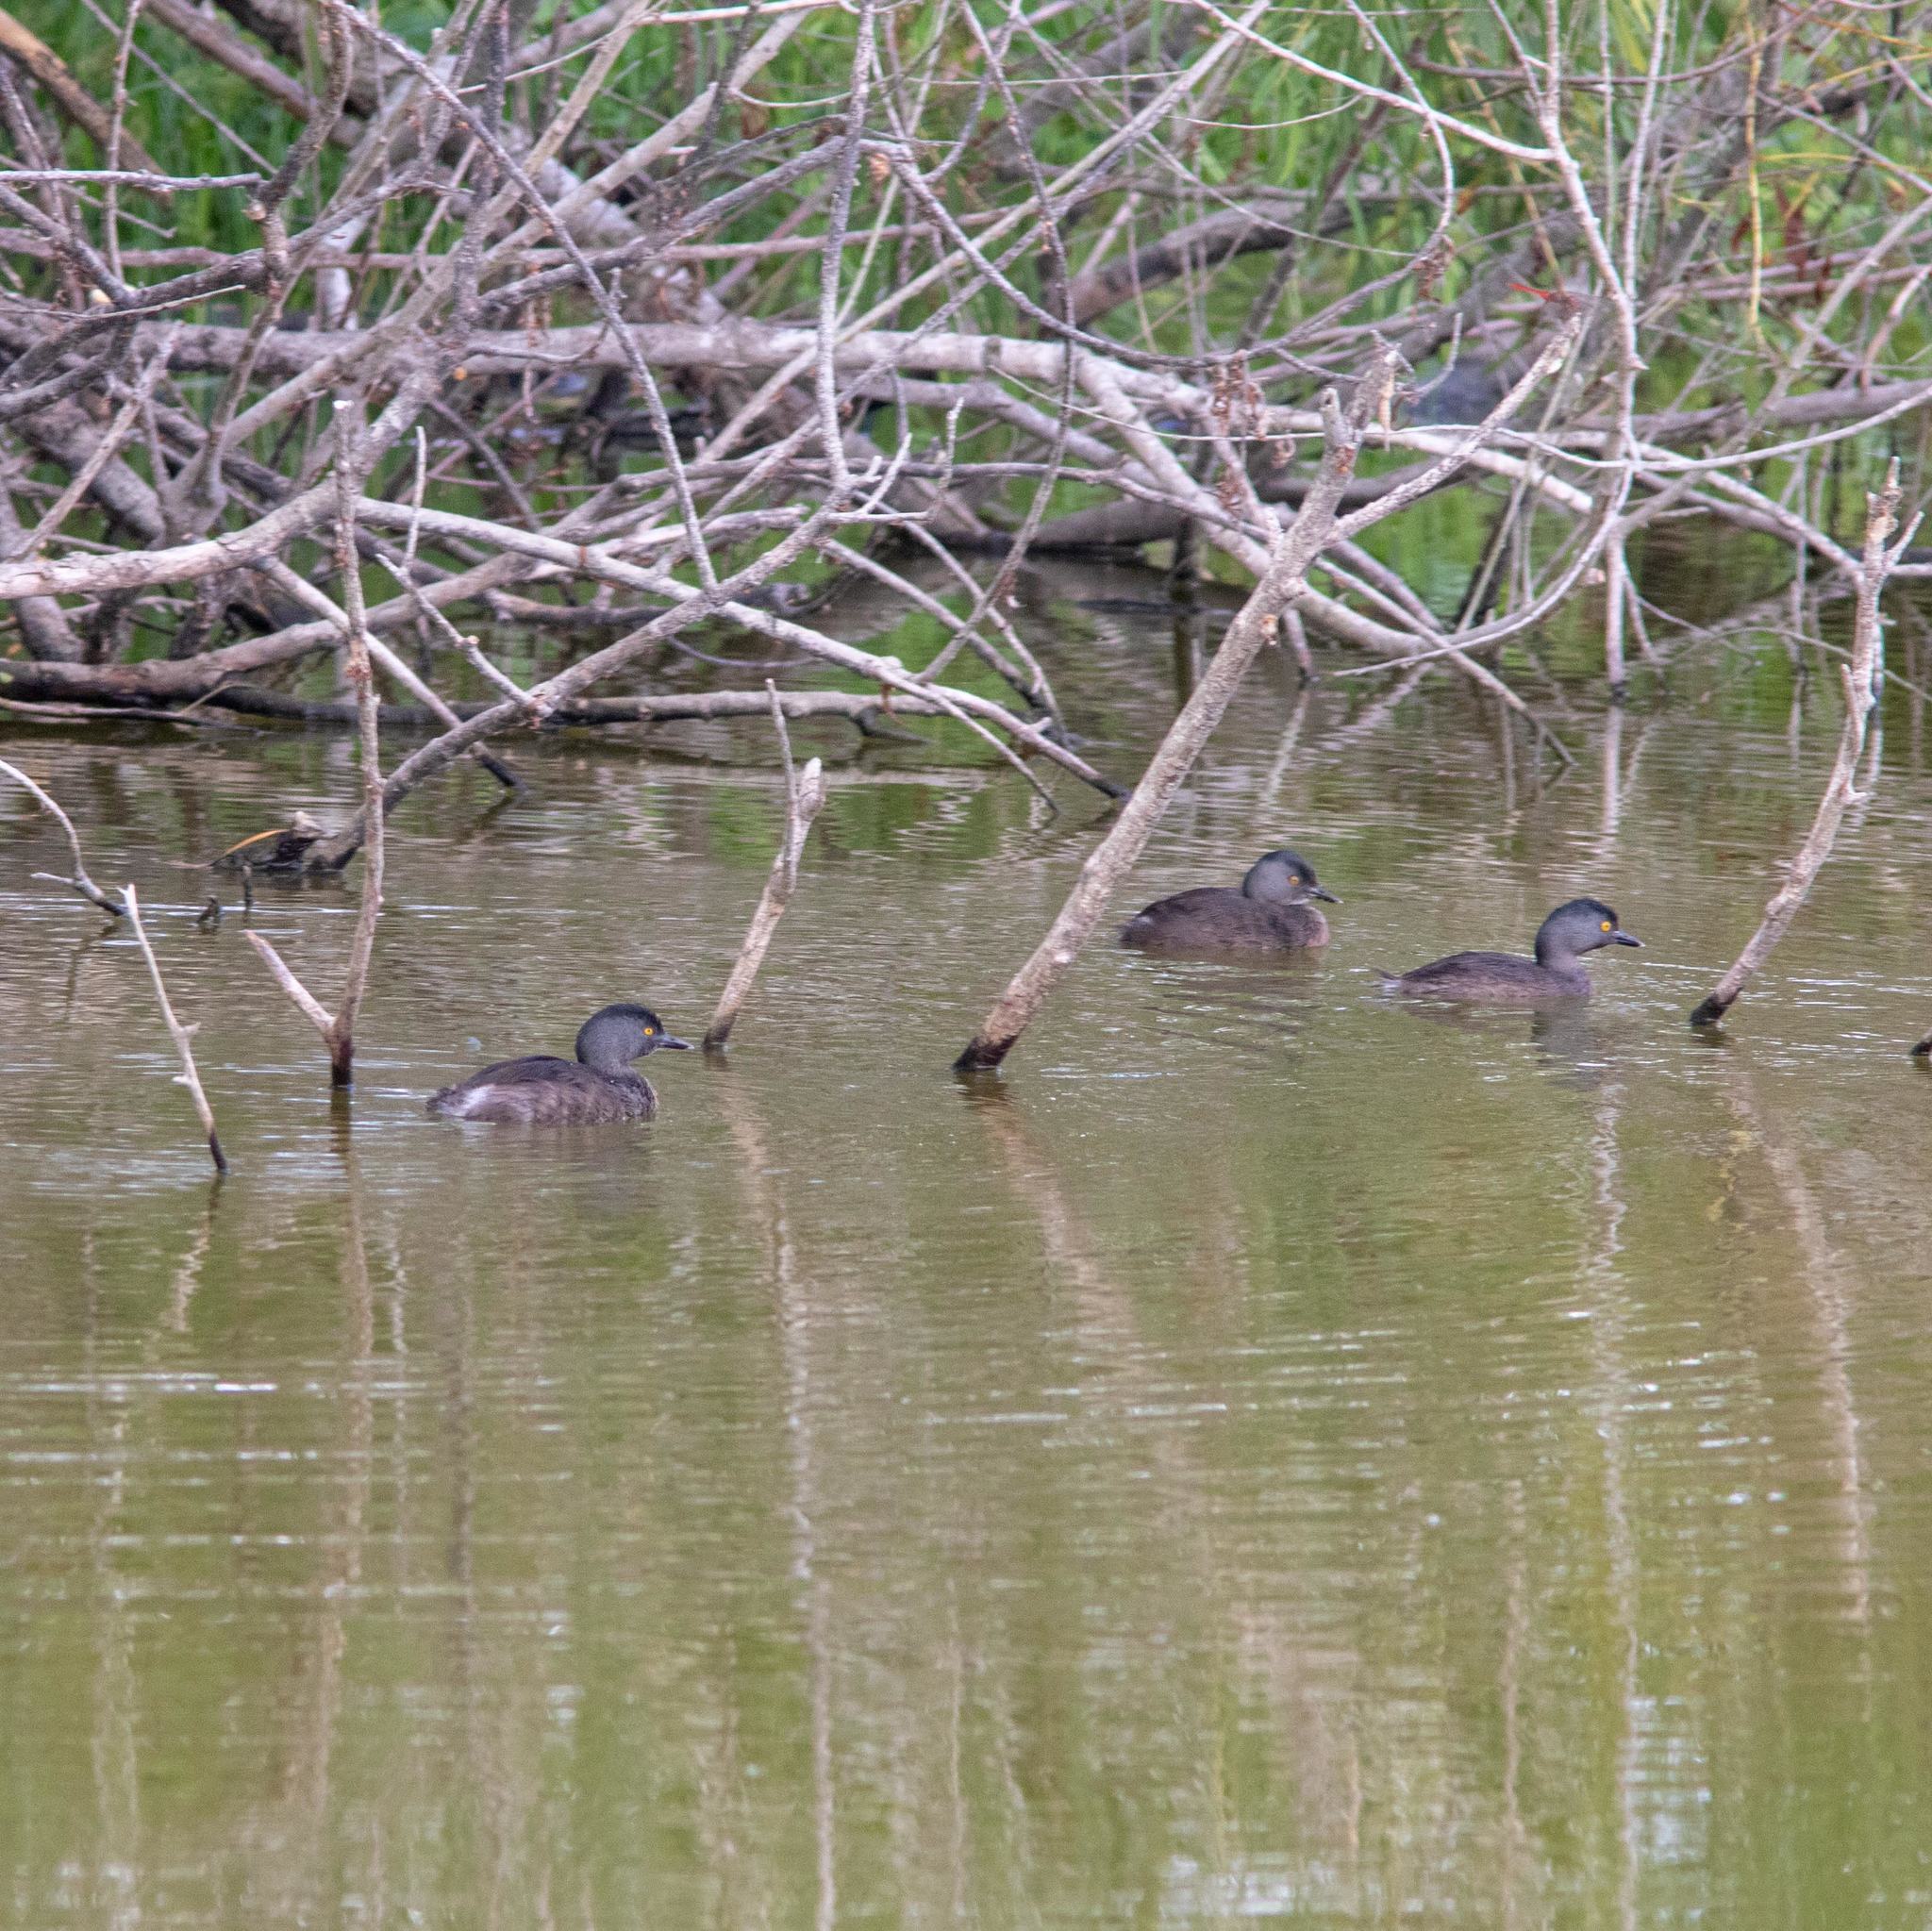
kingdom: Animalia
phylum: Chordata
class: Aves
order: Podicipediformes
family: Podicipedidae
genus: Tachybaptus
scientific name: Tachybaptus dominicus
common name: Least grebe
